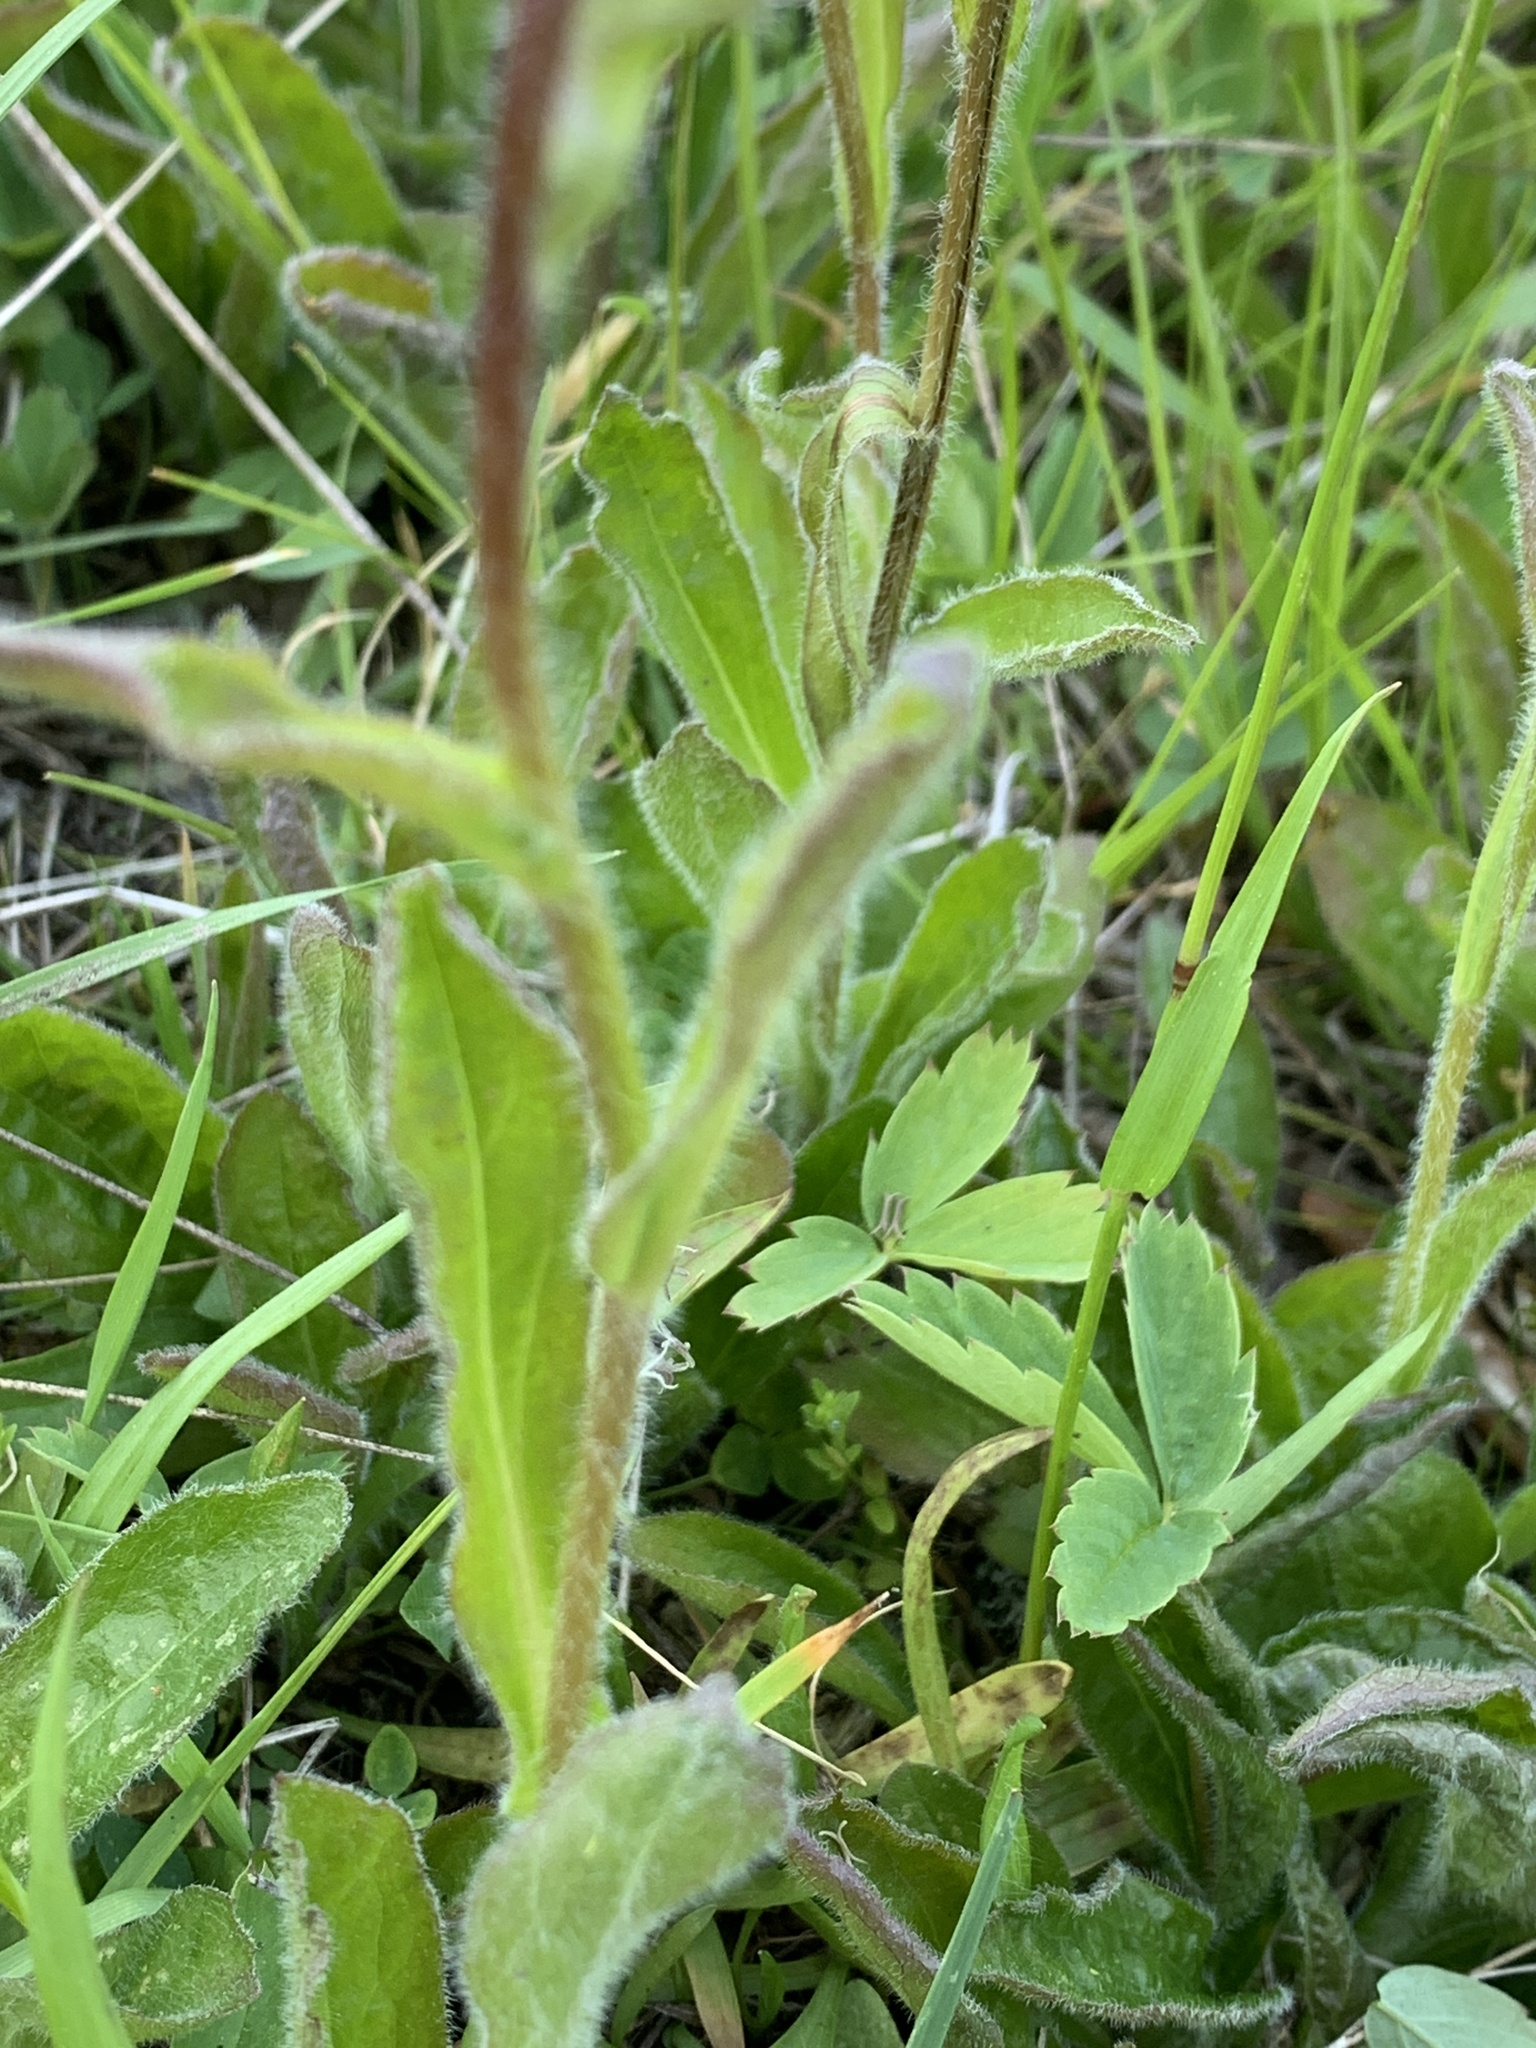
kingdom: Plantae
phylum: Tracheophyta
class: Magnoliopsida
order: Asterales
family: Asteraceae
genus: Erigeron
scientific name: Erigeron pulchellus
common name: Hairy fleabane
